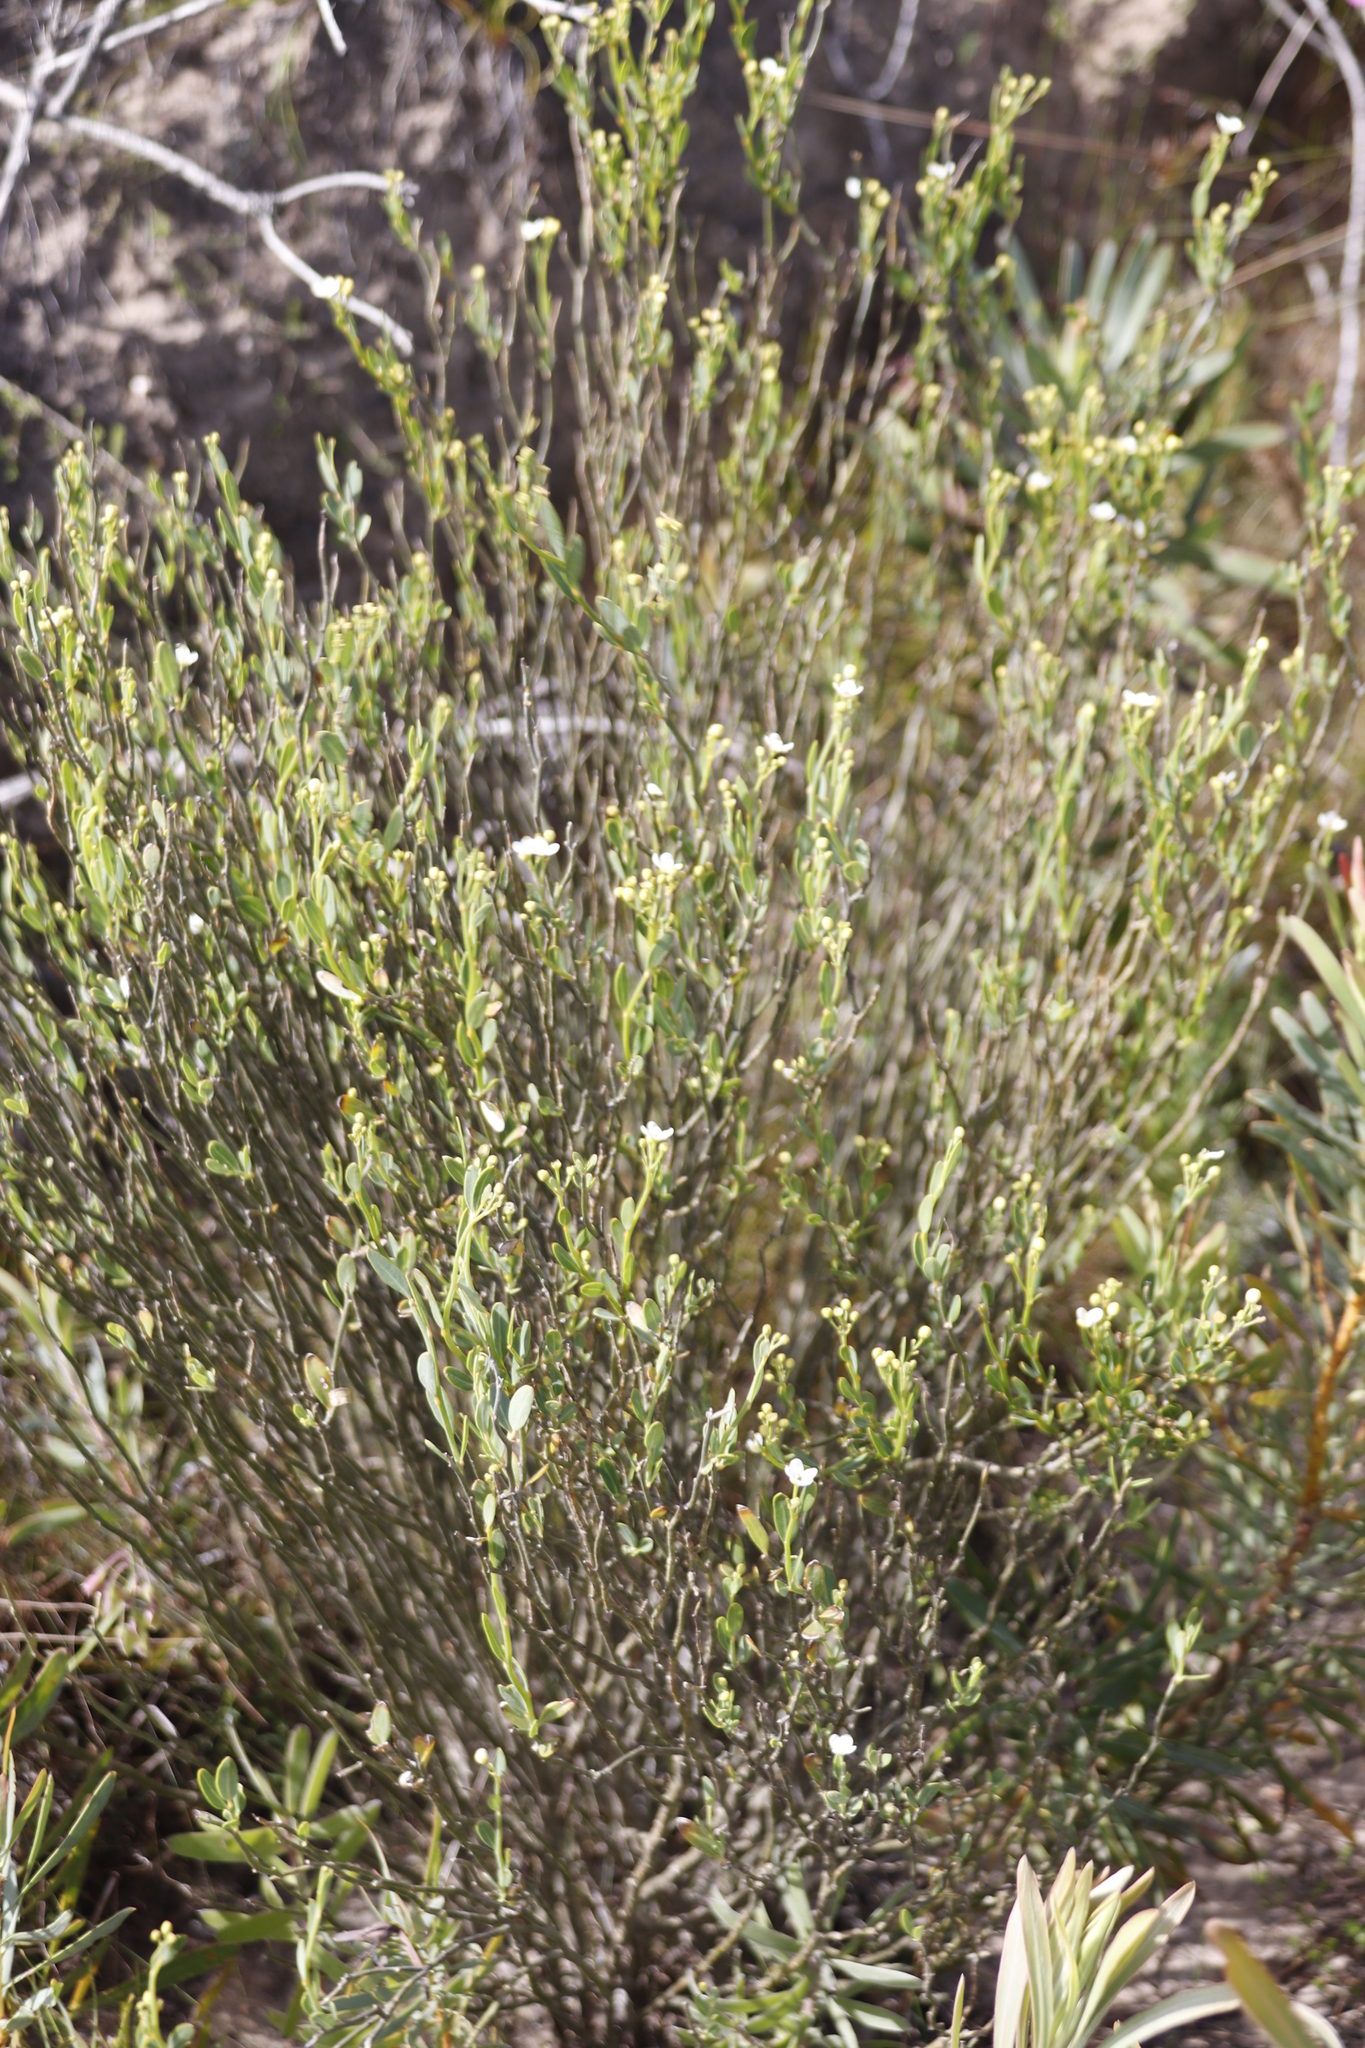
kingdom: Plantae
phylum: Tracheophyta
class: Magnoliopsida
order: Solanales
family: Montiniaceae
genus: Montinia
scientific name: Montinia caryophyllacea
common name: Wild clove-bush
